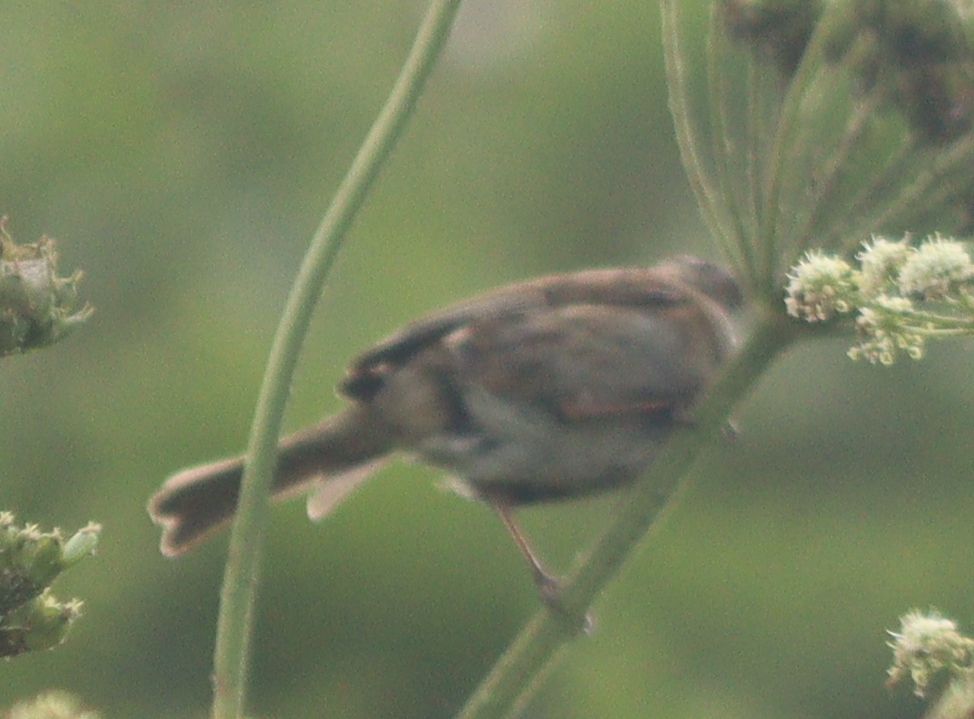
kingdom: Animalia
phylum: Chordata
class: Aves
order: Passeriformes
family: Prunellidae
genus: Prunella
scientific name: Prunella modularis
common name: Dunnock
